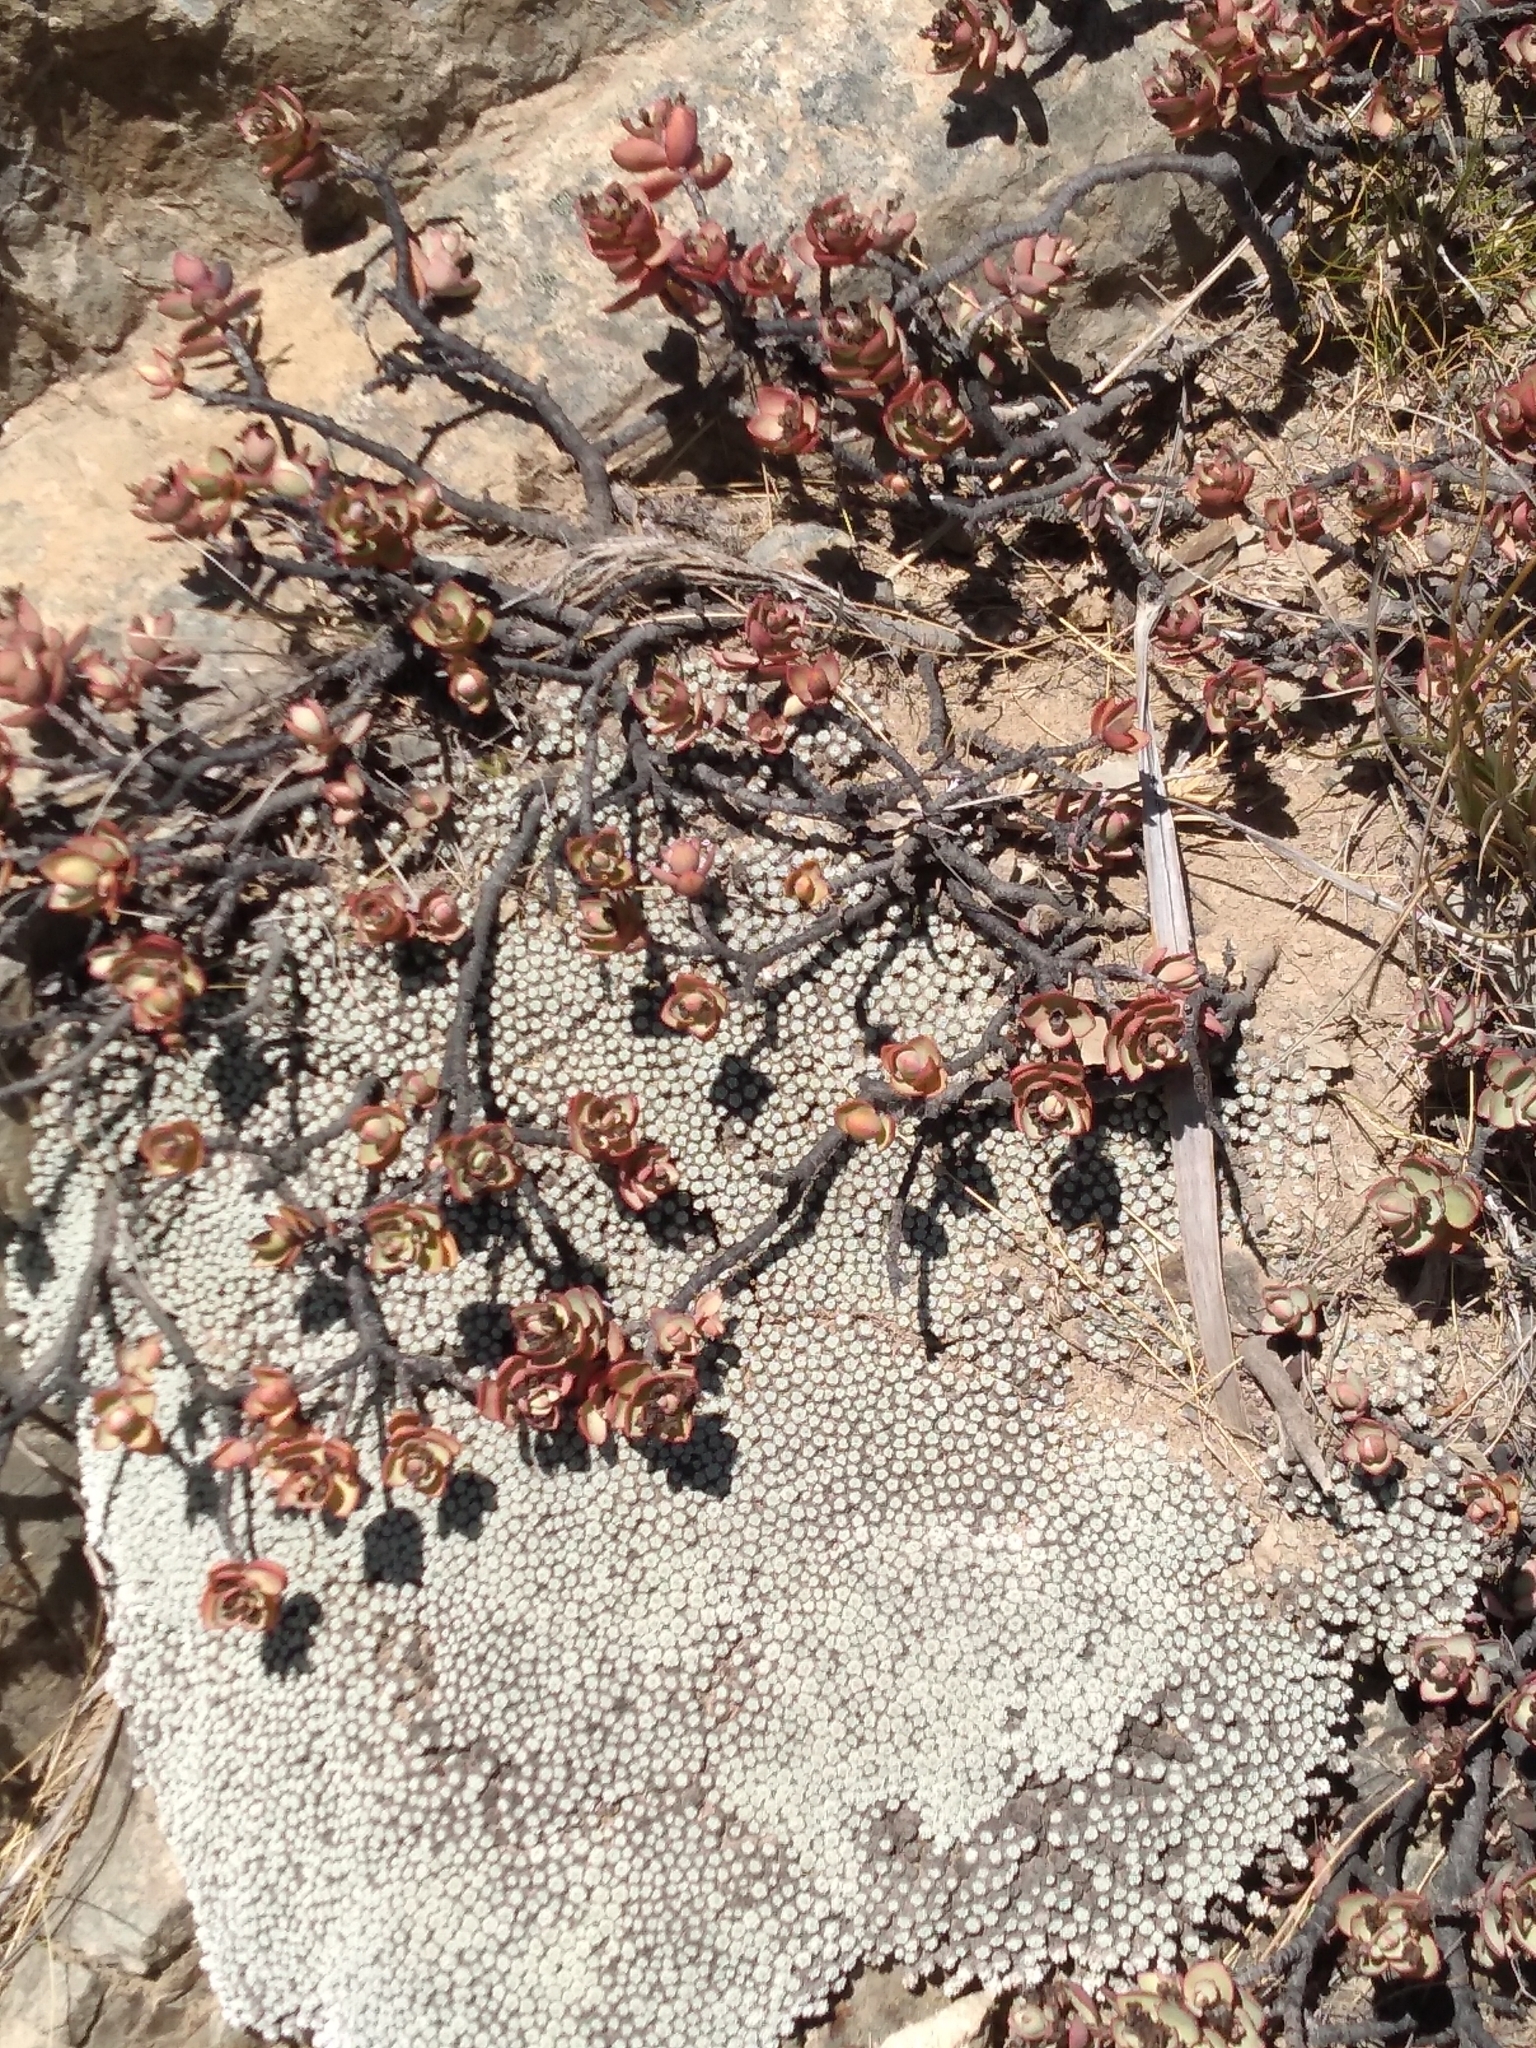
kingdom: Plantae
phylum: Tracheophyta
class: Magnoliopsida
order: Lamiales
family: Plantaginaceae
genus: Veronica
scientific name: Veronica pinguifolia
